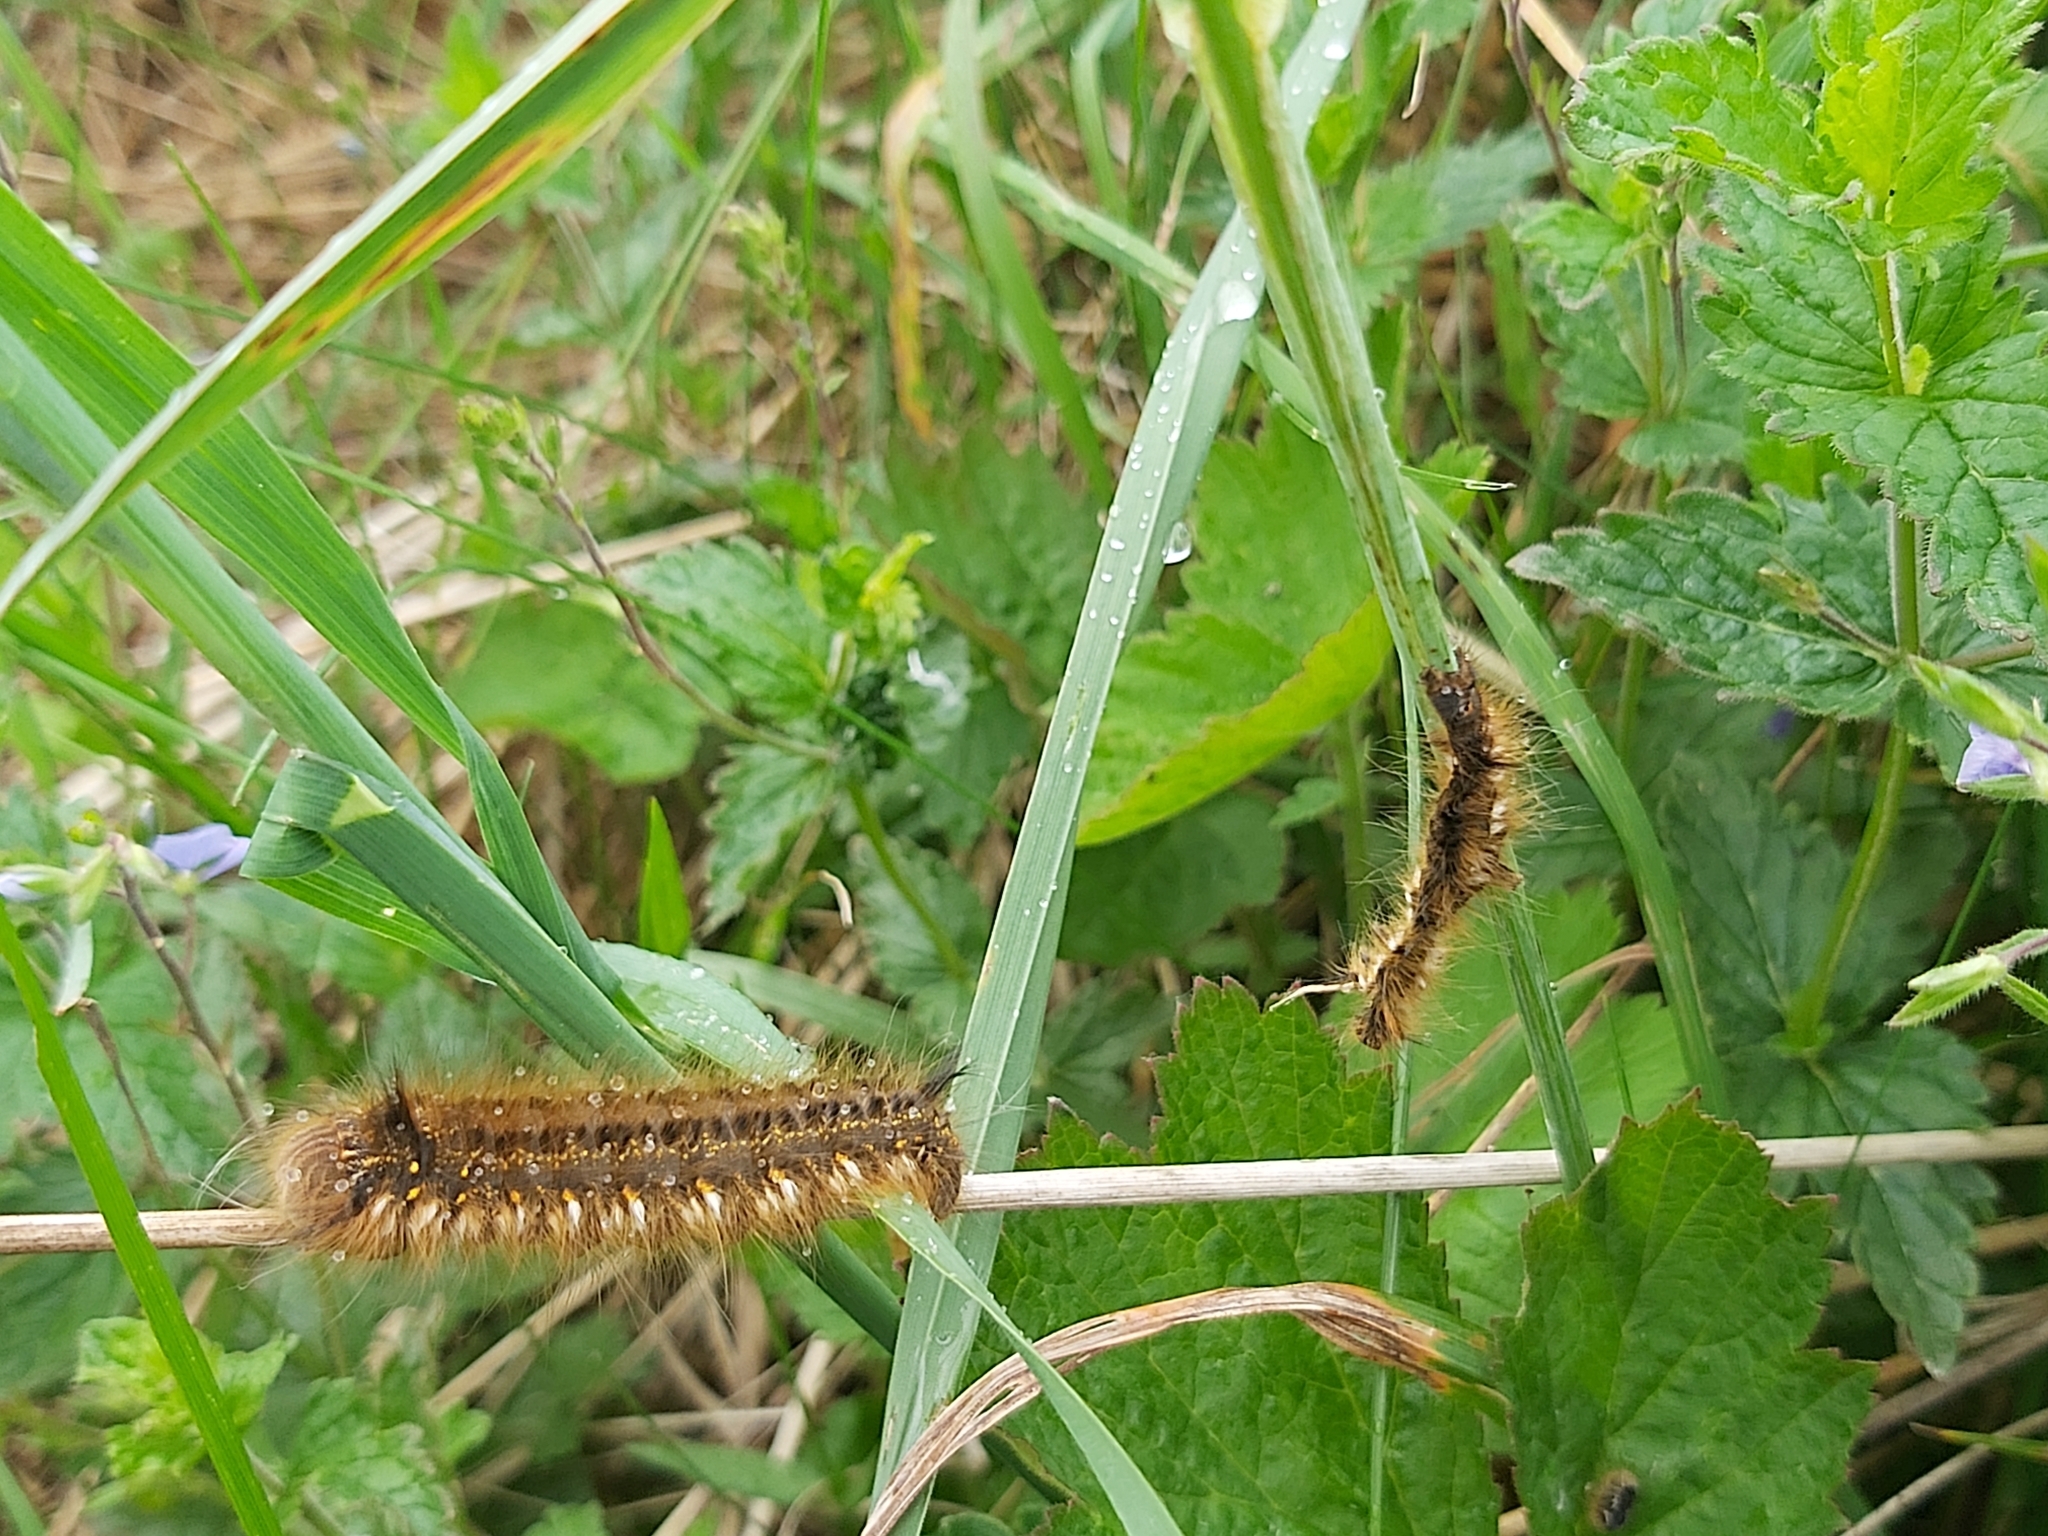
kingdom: Animalia
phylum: Arthropoda
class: Insecta
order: Lepidoptera
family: Lasiocampidae
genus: Euthrix
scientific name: Euthrix potatoria
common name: Drinker
